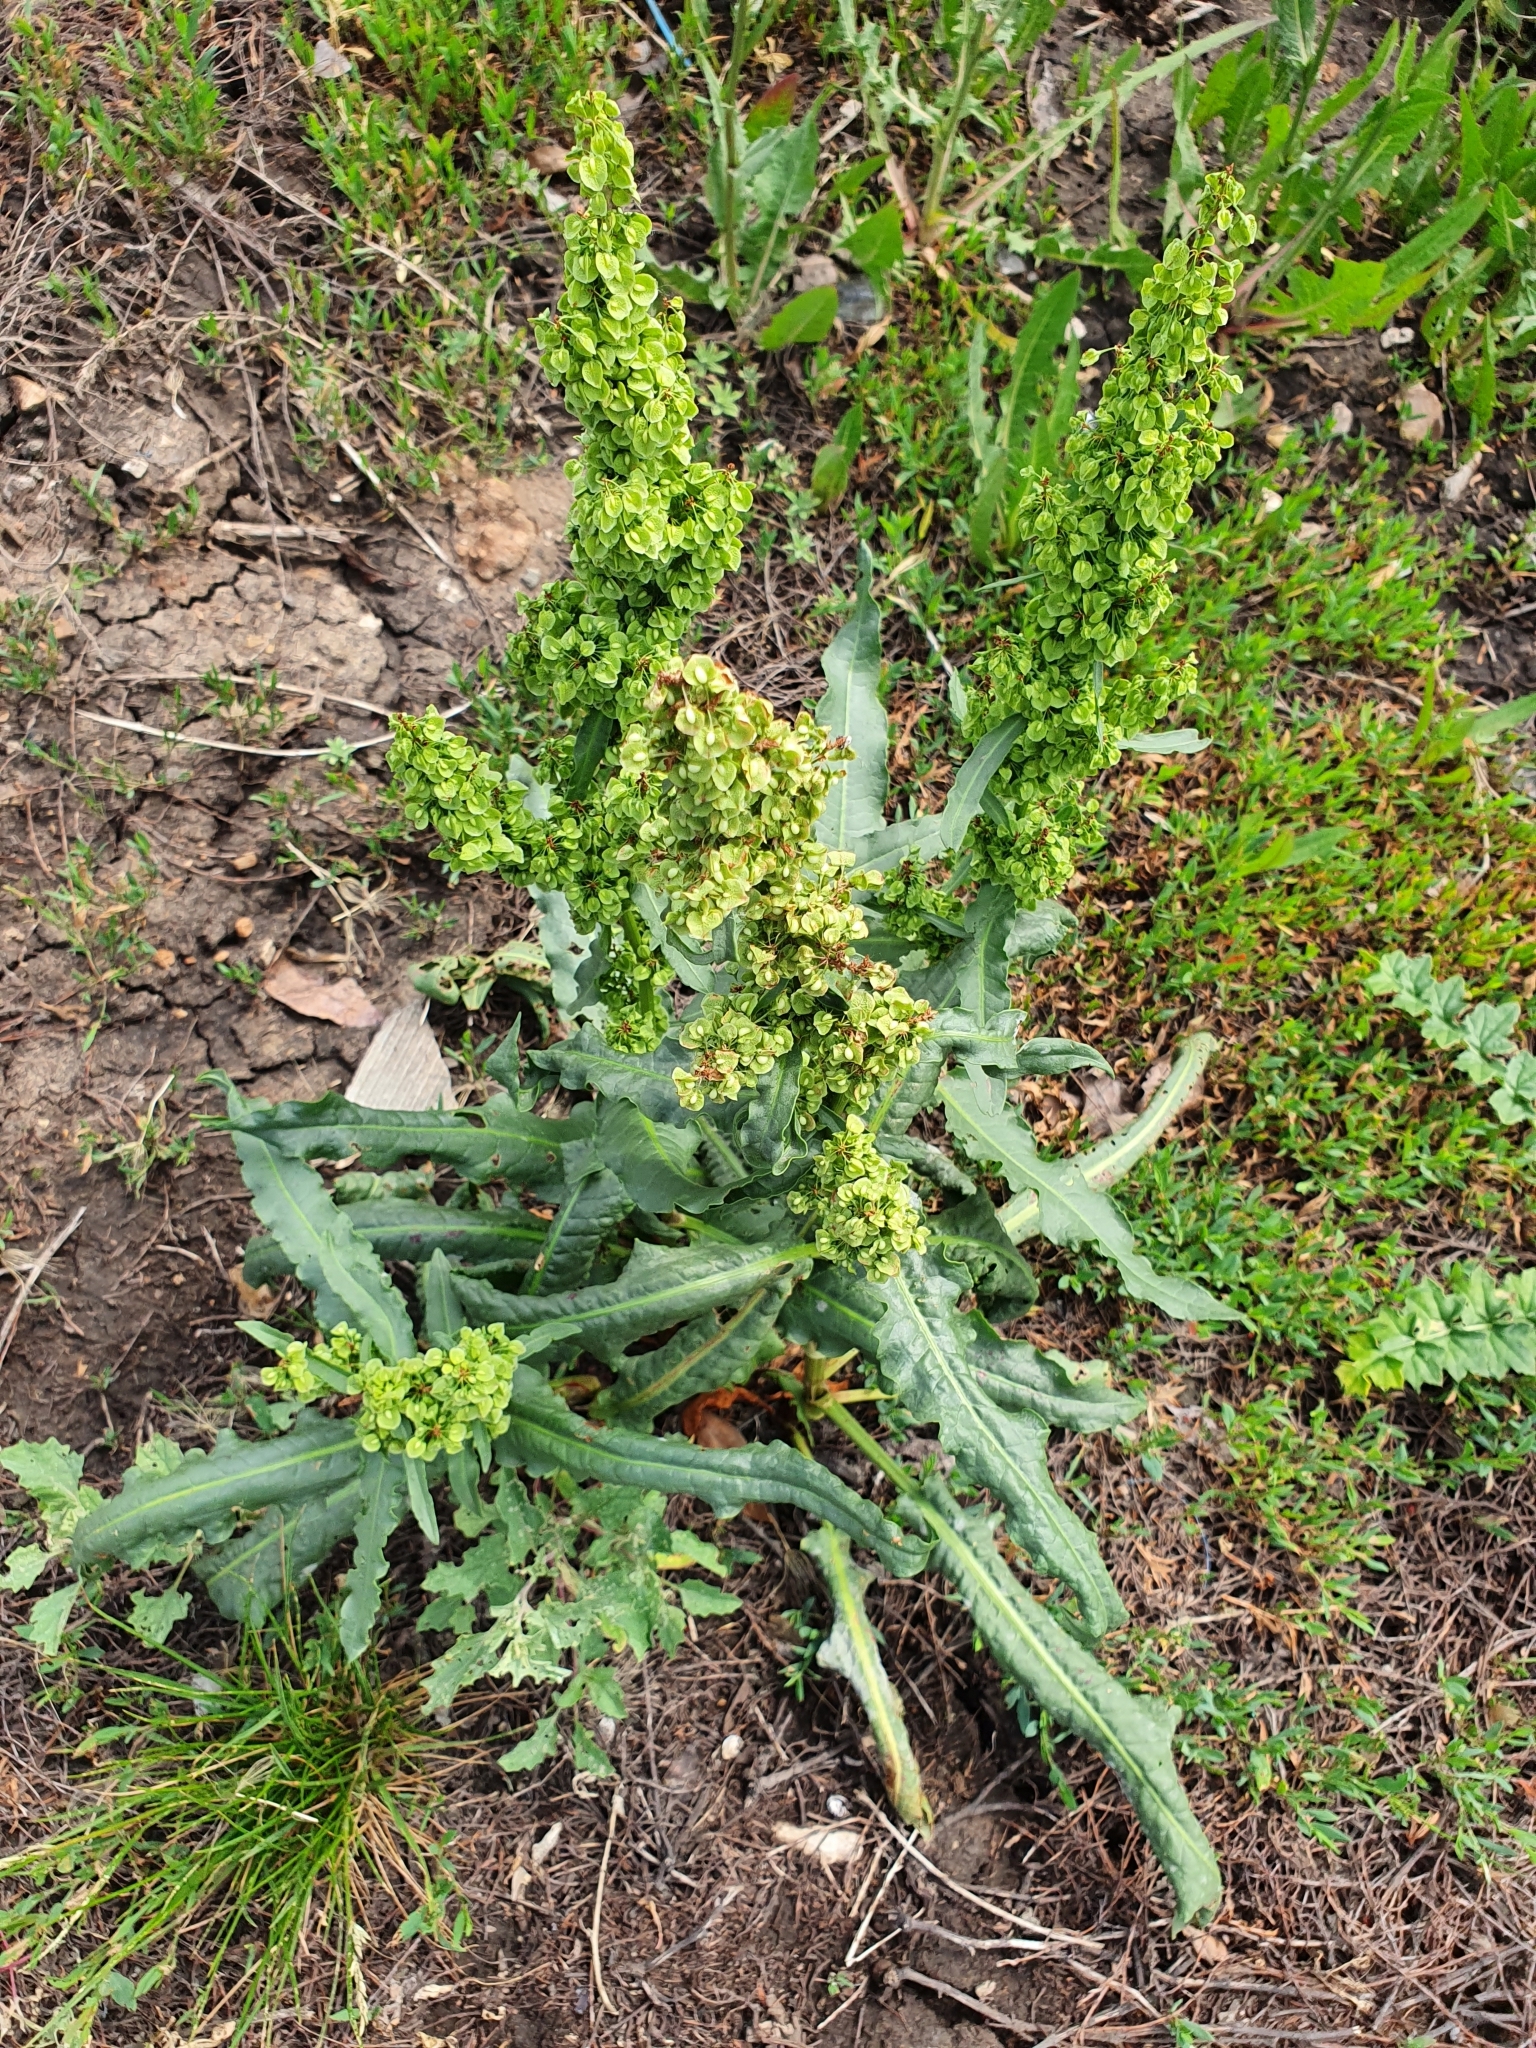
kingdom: Plantae
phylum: Tracheophyta
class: Magnoliopsida
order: Caryophyllales
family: Polygonaceae
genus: Rumex
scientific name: Rumex crispus
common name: Curled dock
